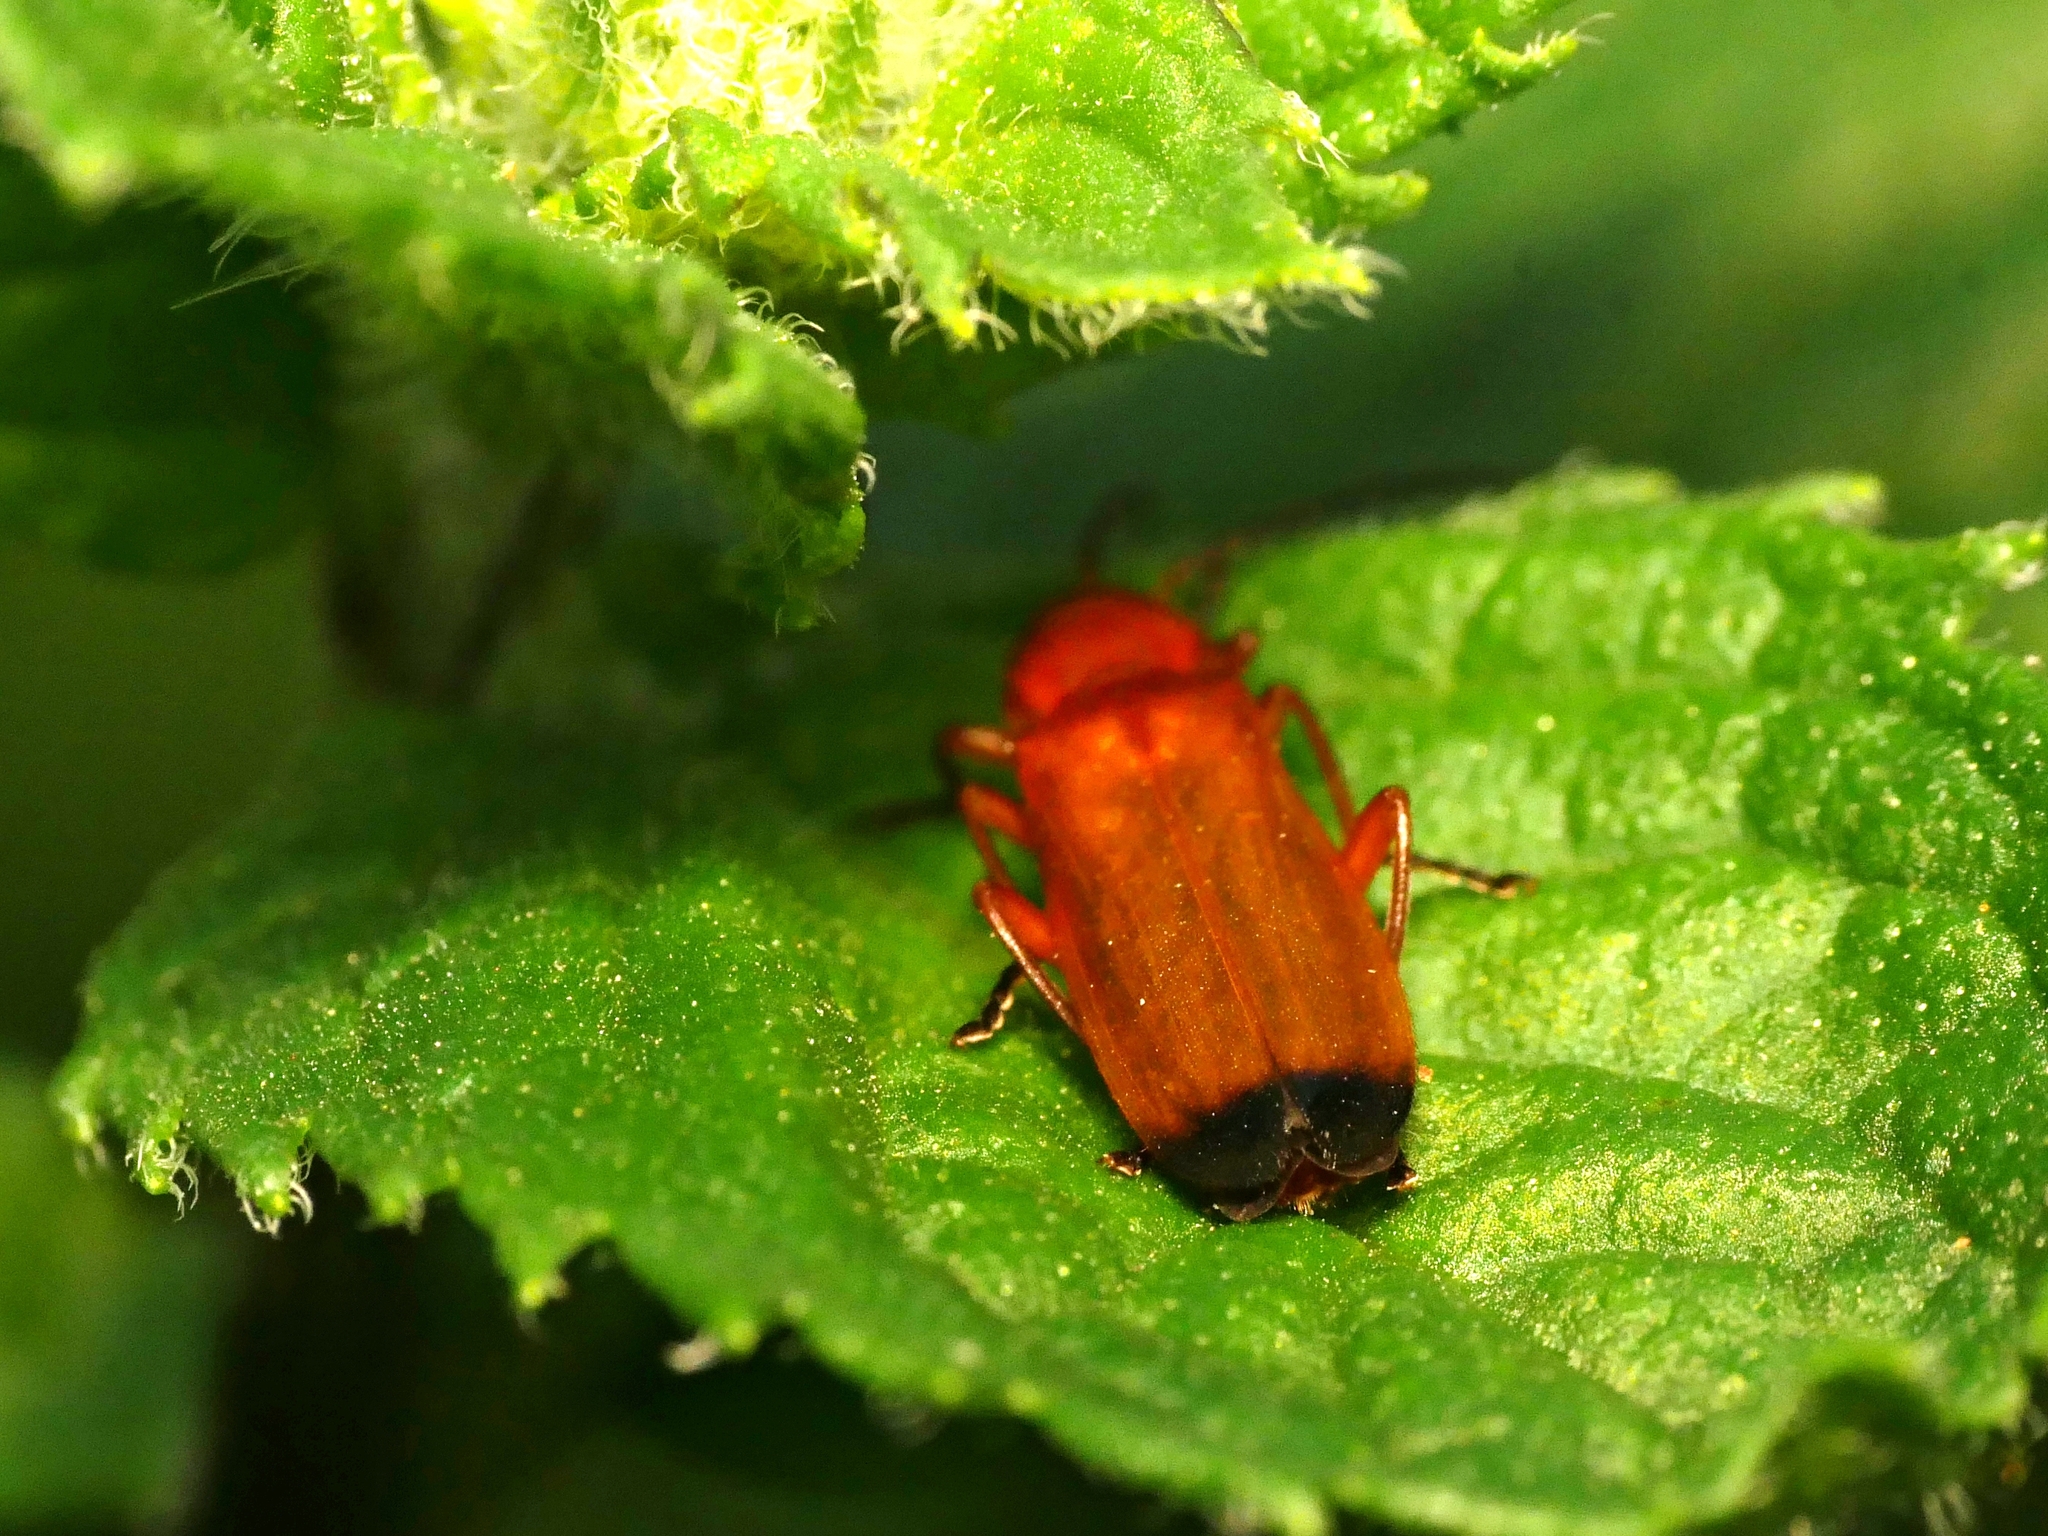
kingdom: Animalia
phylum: Arthropoda
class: Insecta
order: Coleoptera
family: Cantharidae
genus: Rhagonycha
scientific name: Rhagonycha fulva
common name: Common red soldier beetle
